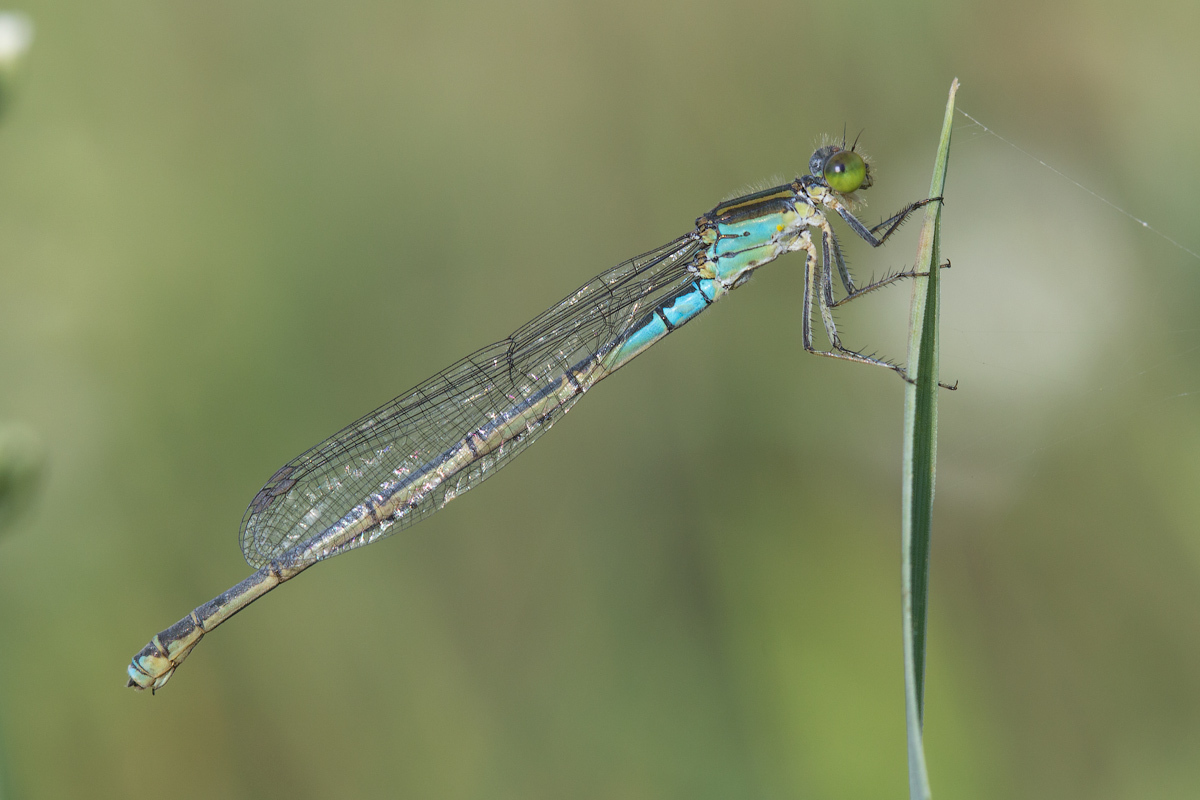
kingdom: Animalia
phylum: Arthropoda
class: Insecta
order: Odonata
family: Coenagrionidae
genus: Erythromma
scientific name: Erythromma viridulum
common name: Small red-eyed damselfly
